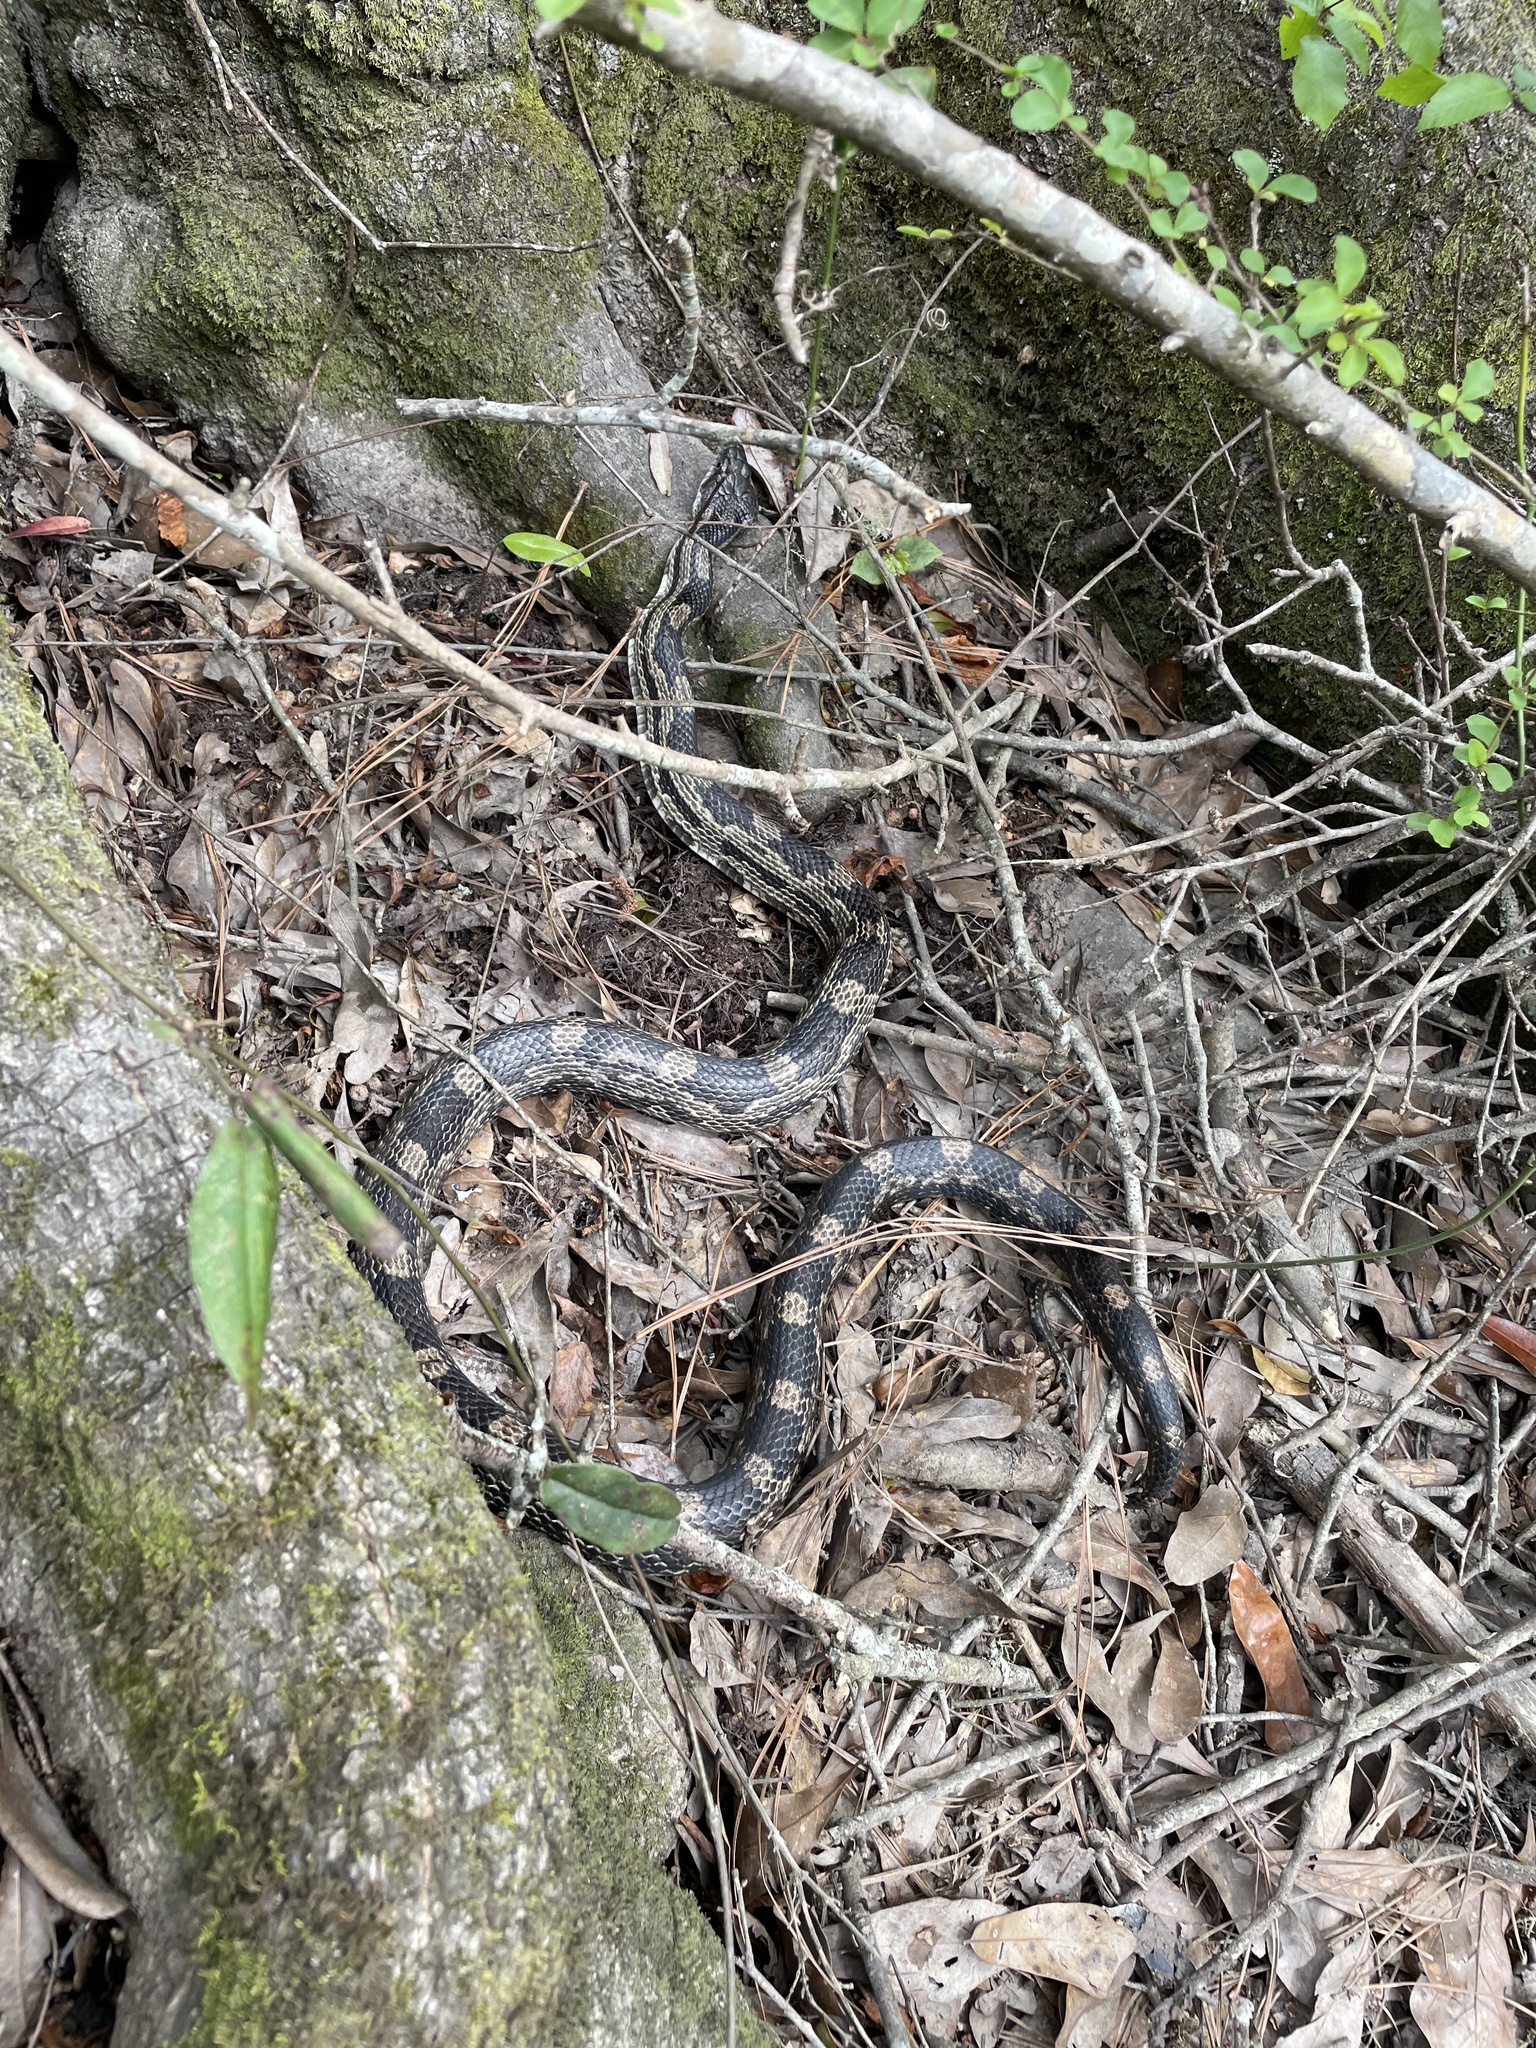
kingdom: Animalia
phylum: Chordata
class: Squamata
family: Colubridae
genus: Pantherophis
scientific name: Pantherophis spiloides
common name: Gray rat snake
